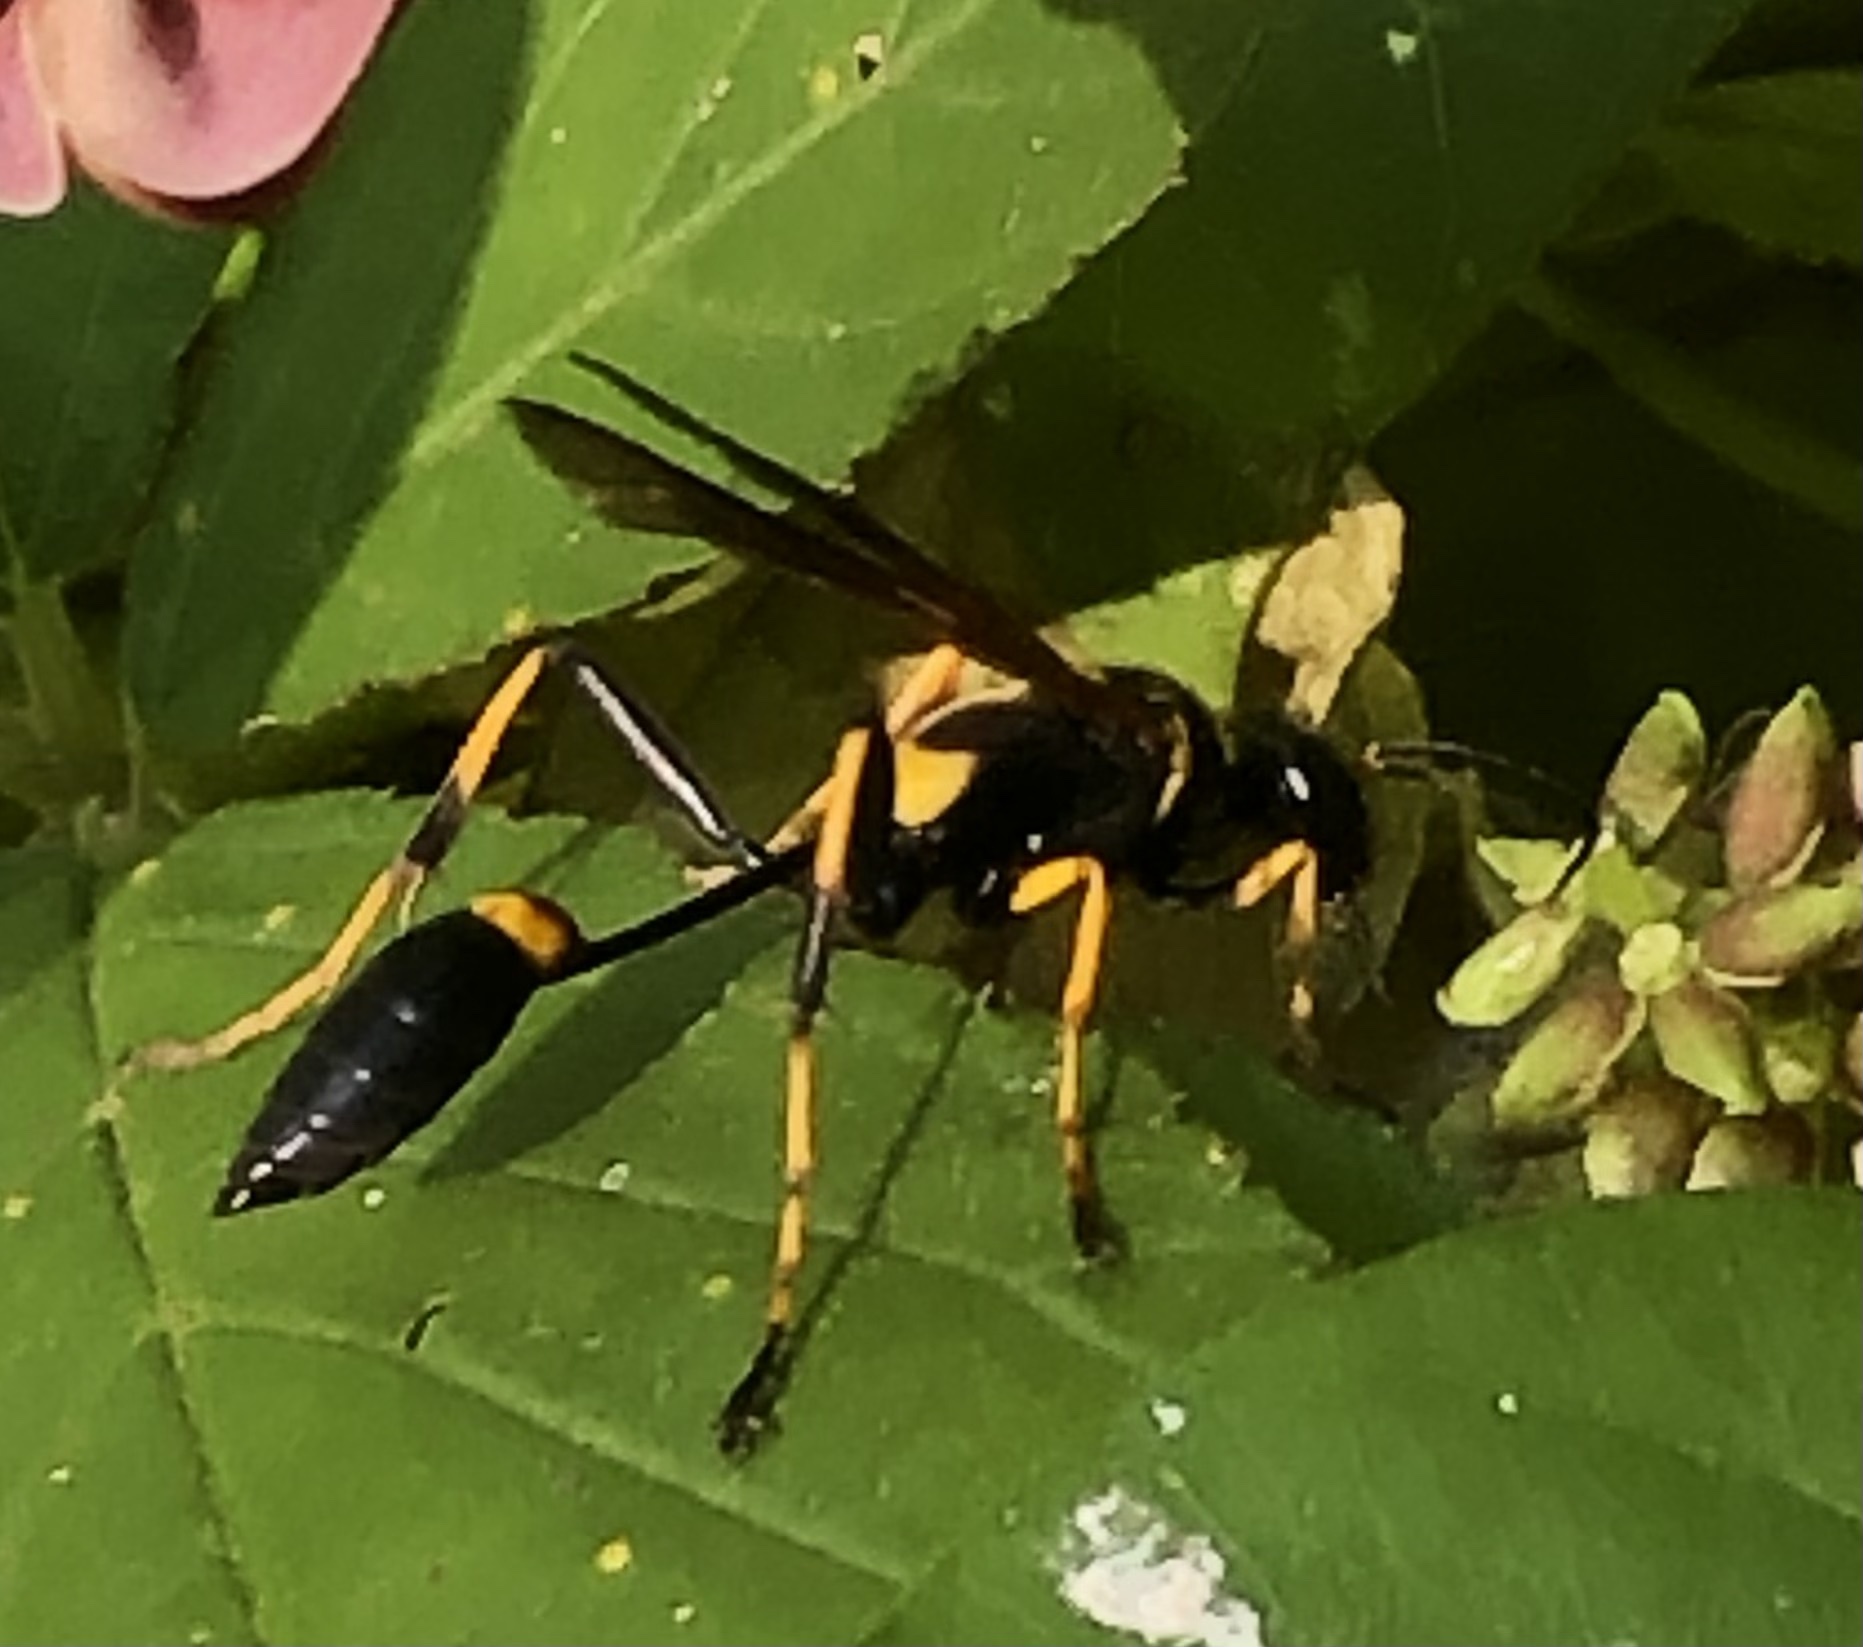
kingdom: Animalia
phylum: Arthropoda
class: Insecta
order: Hymenoptera
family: Sphecidae
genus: Sceliphron
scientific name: Sceliphron caementarium
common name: Mud dauber
